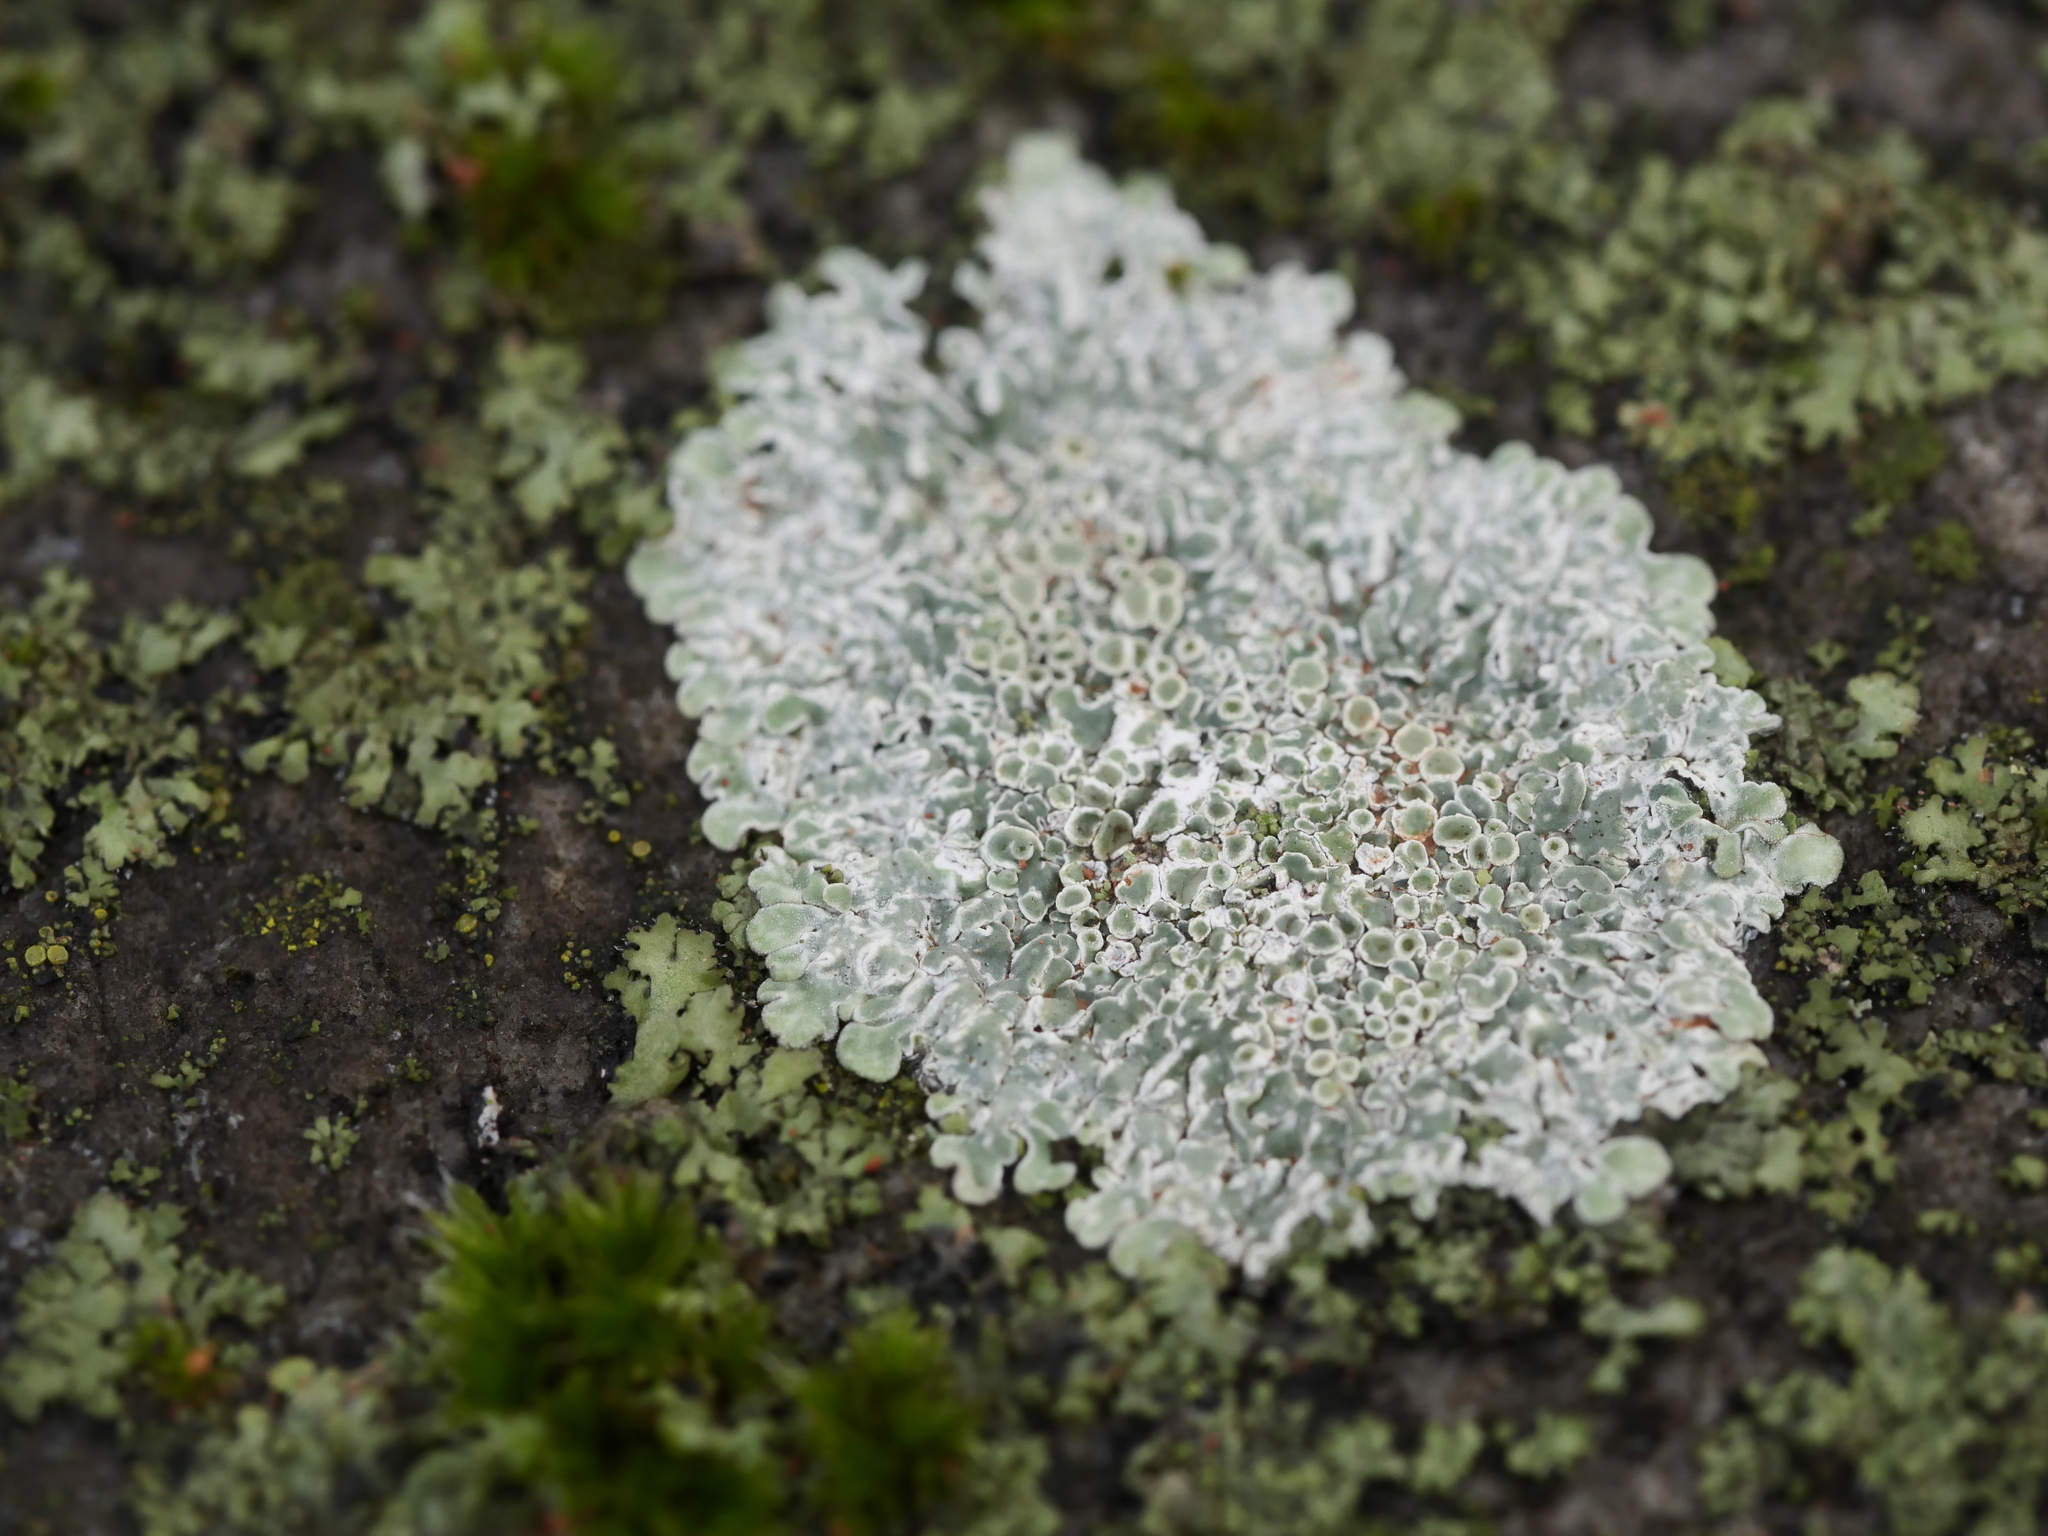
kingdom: Fungi
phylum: Ascomycota
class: Lecanoromycetes
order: Lecanorales
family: Lecanoraceae
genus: Protoparmeliopsis
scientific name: Protoparmeliopsis muralis
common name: Stonewall rim lichen
